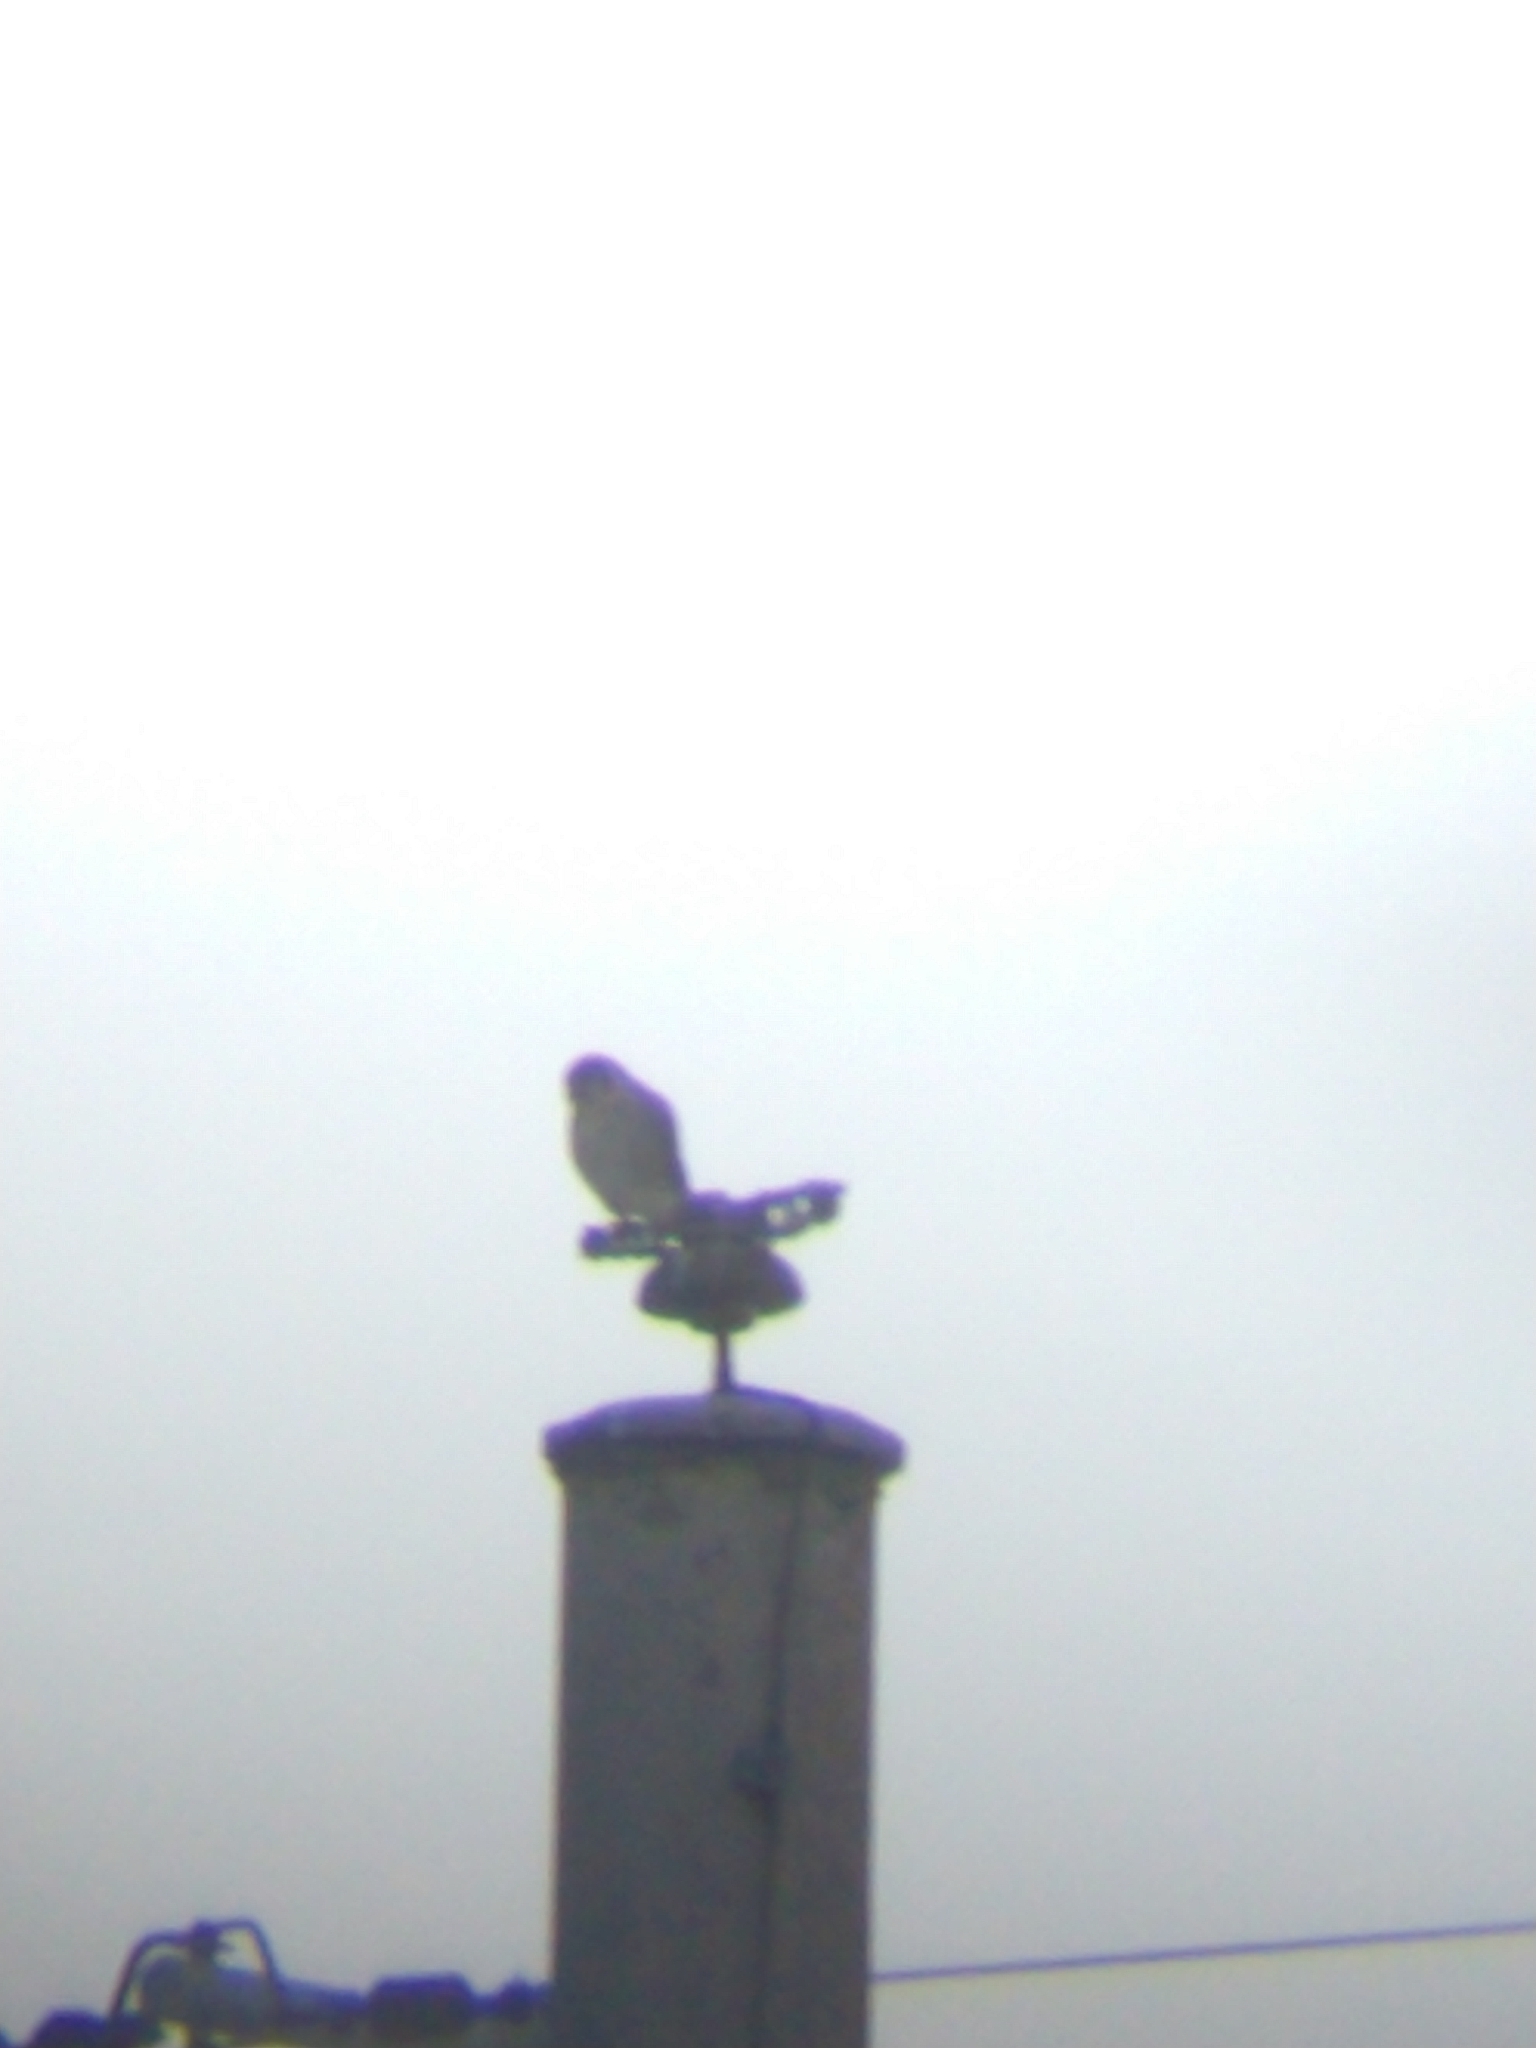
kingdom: Animalia
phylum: Chordata
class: Aves
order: Falconiformes
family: Falconidae
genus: Falco
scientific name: Falco sparverius
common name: American kestrel
